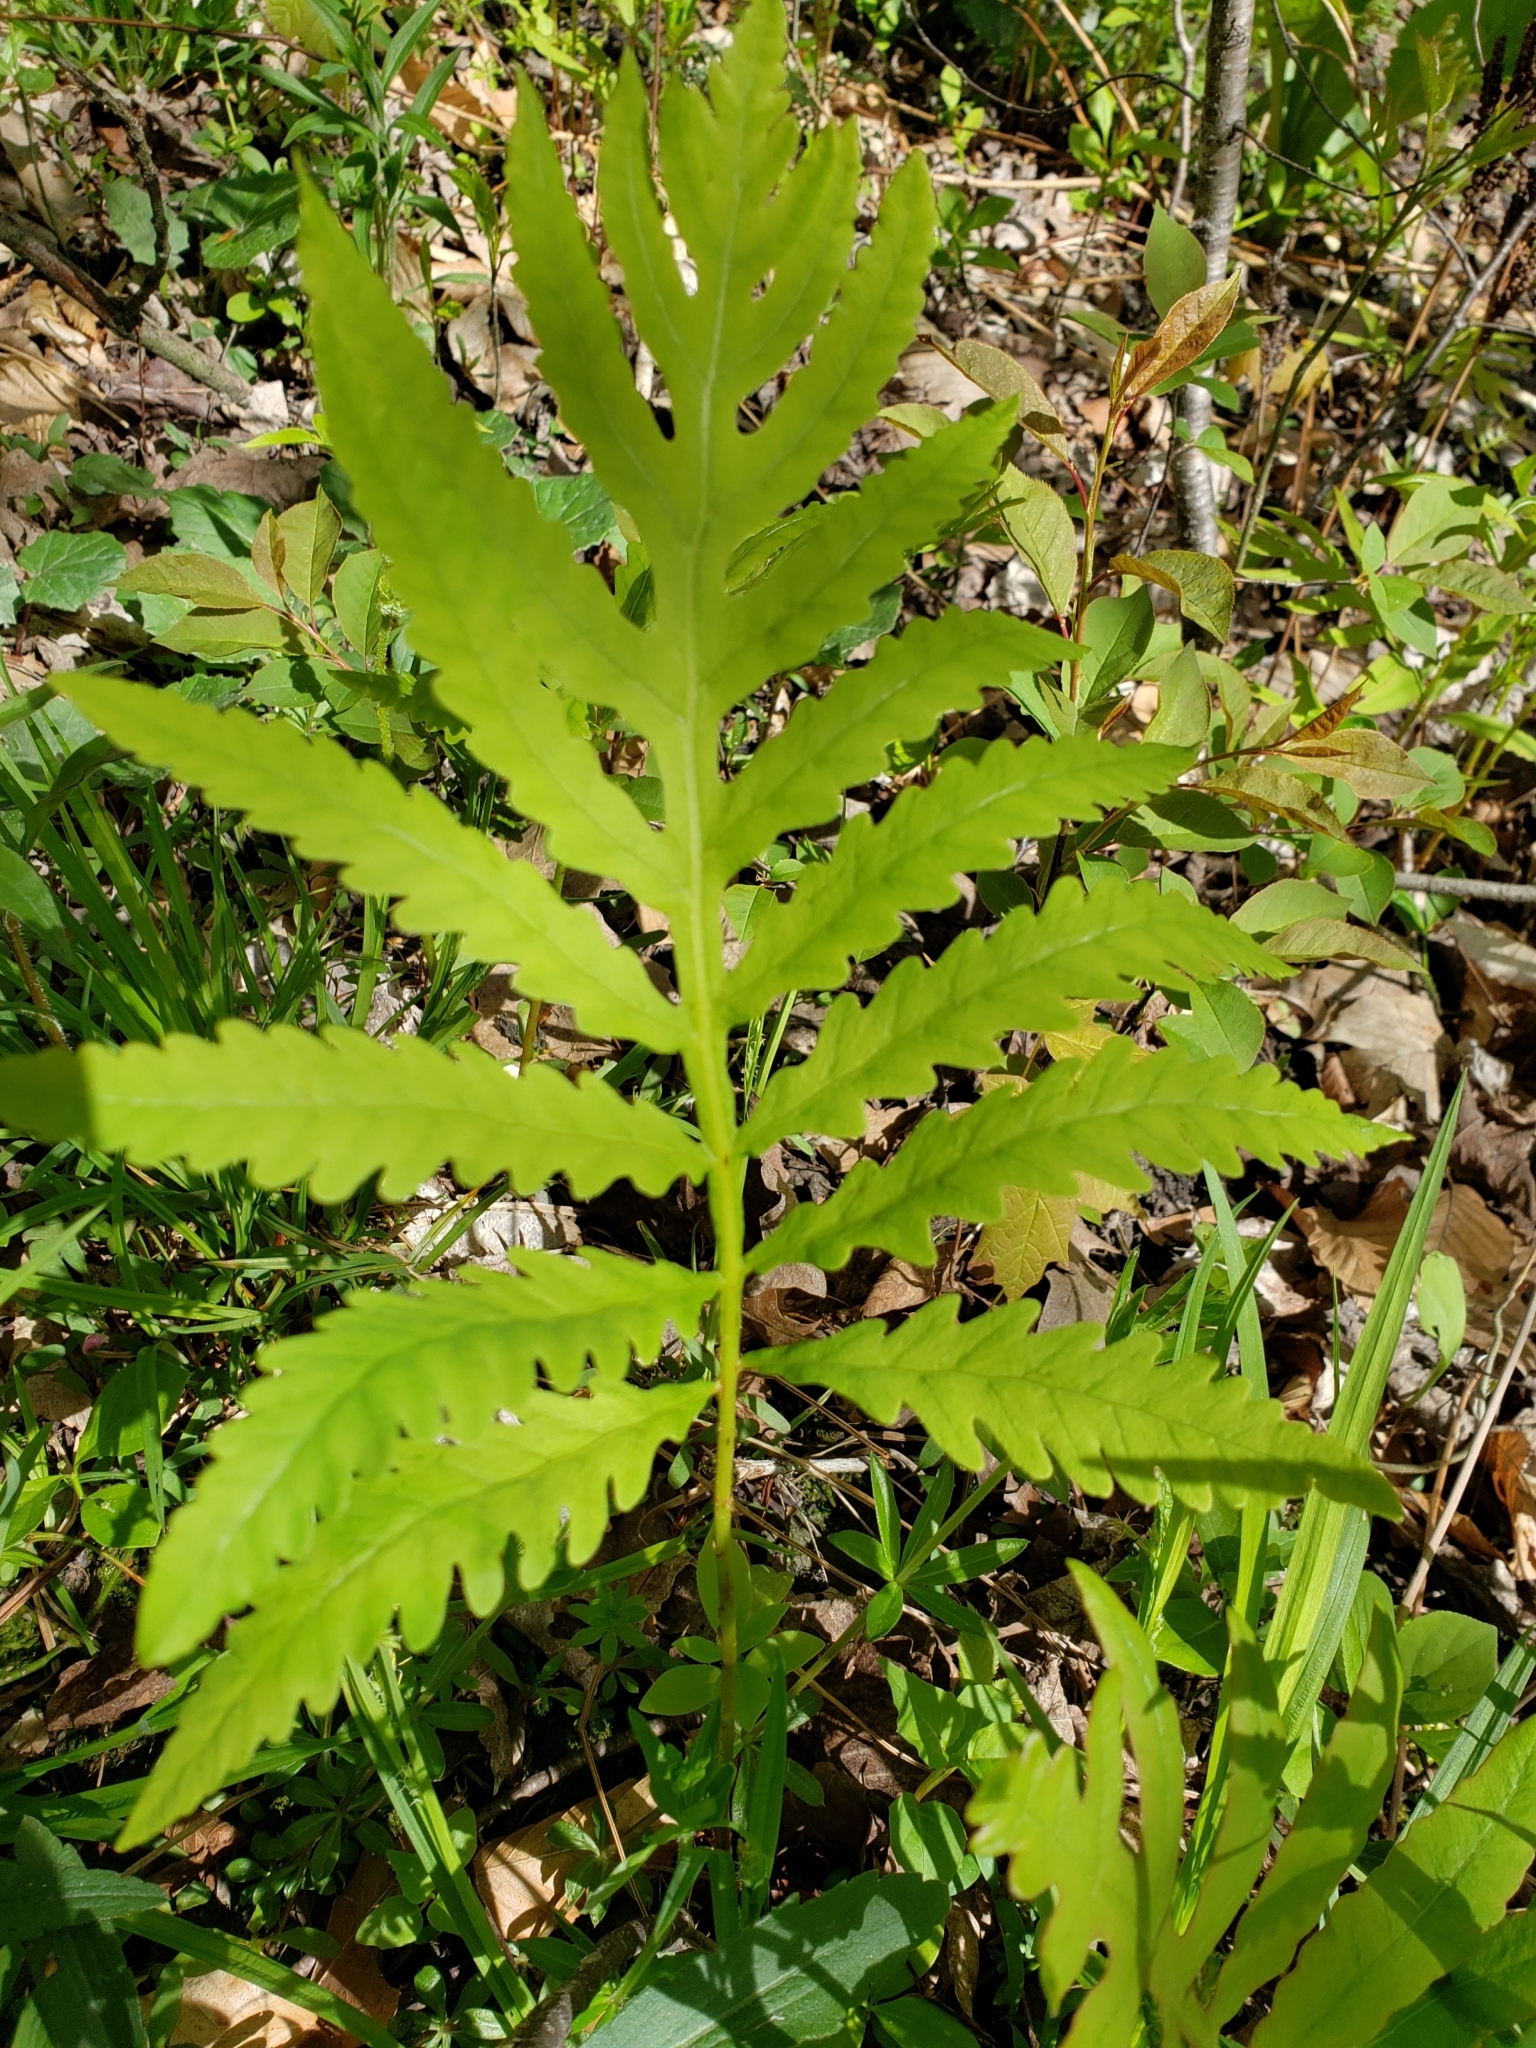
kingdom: Plantae
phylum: Tracheophyta
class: Polypodiopsida
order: Polypodiales
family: Onocleaceae
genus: Onoclea
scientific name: Onoclea sensibilis
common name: Sensitive fern
